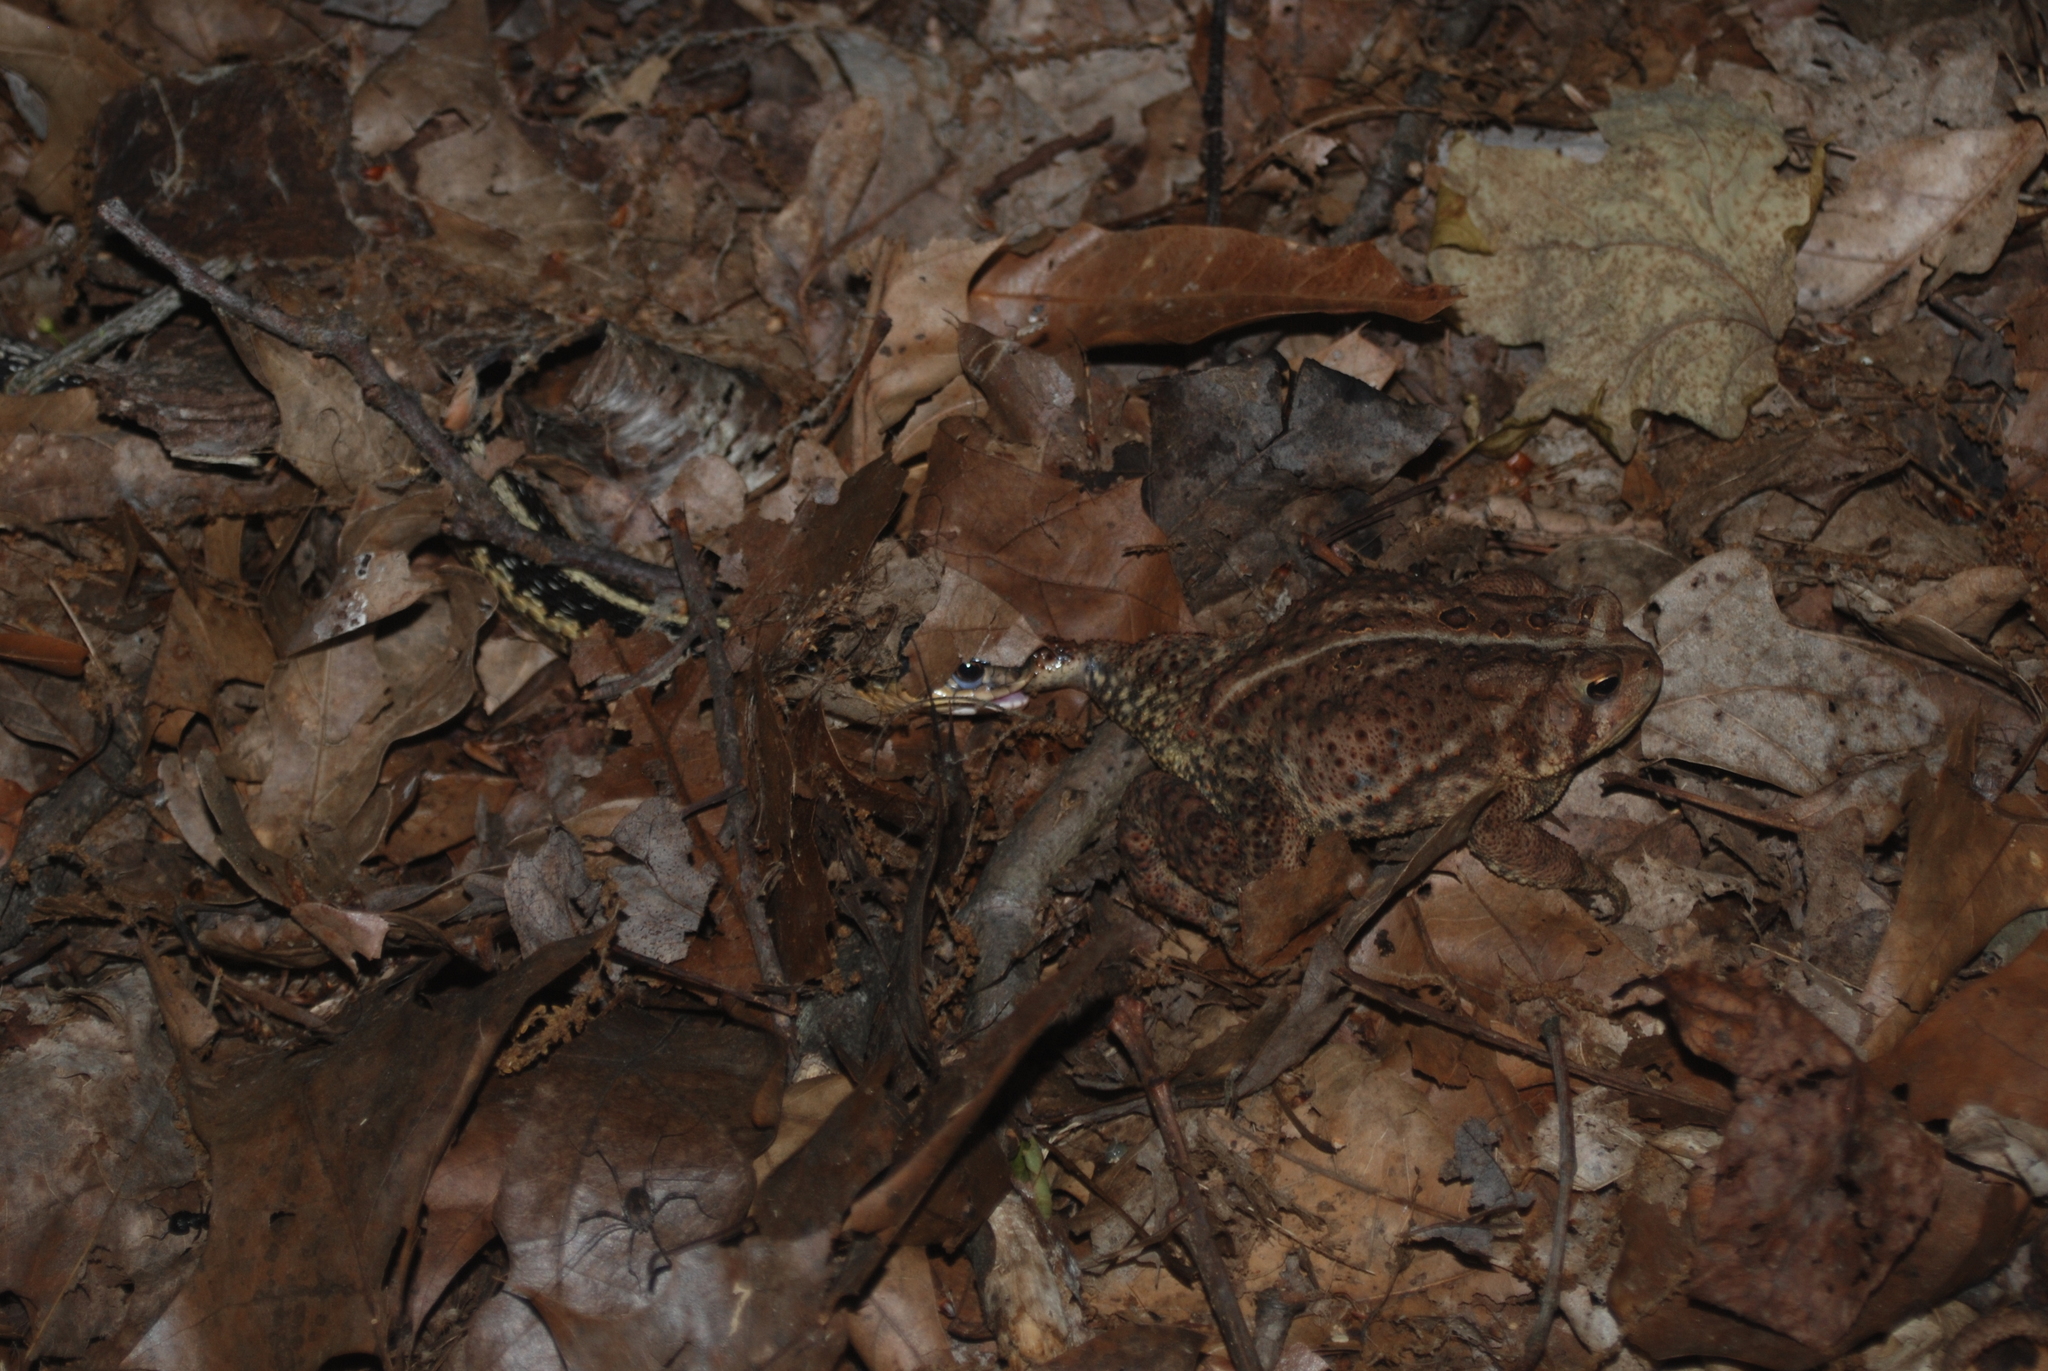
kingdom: Animalia
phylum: Chordata
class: Squamata
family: Colubridae
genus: Thamnophis
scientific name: Thamnophis sirtalis
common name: Common garter snake
